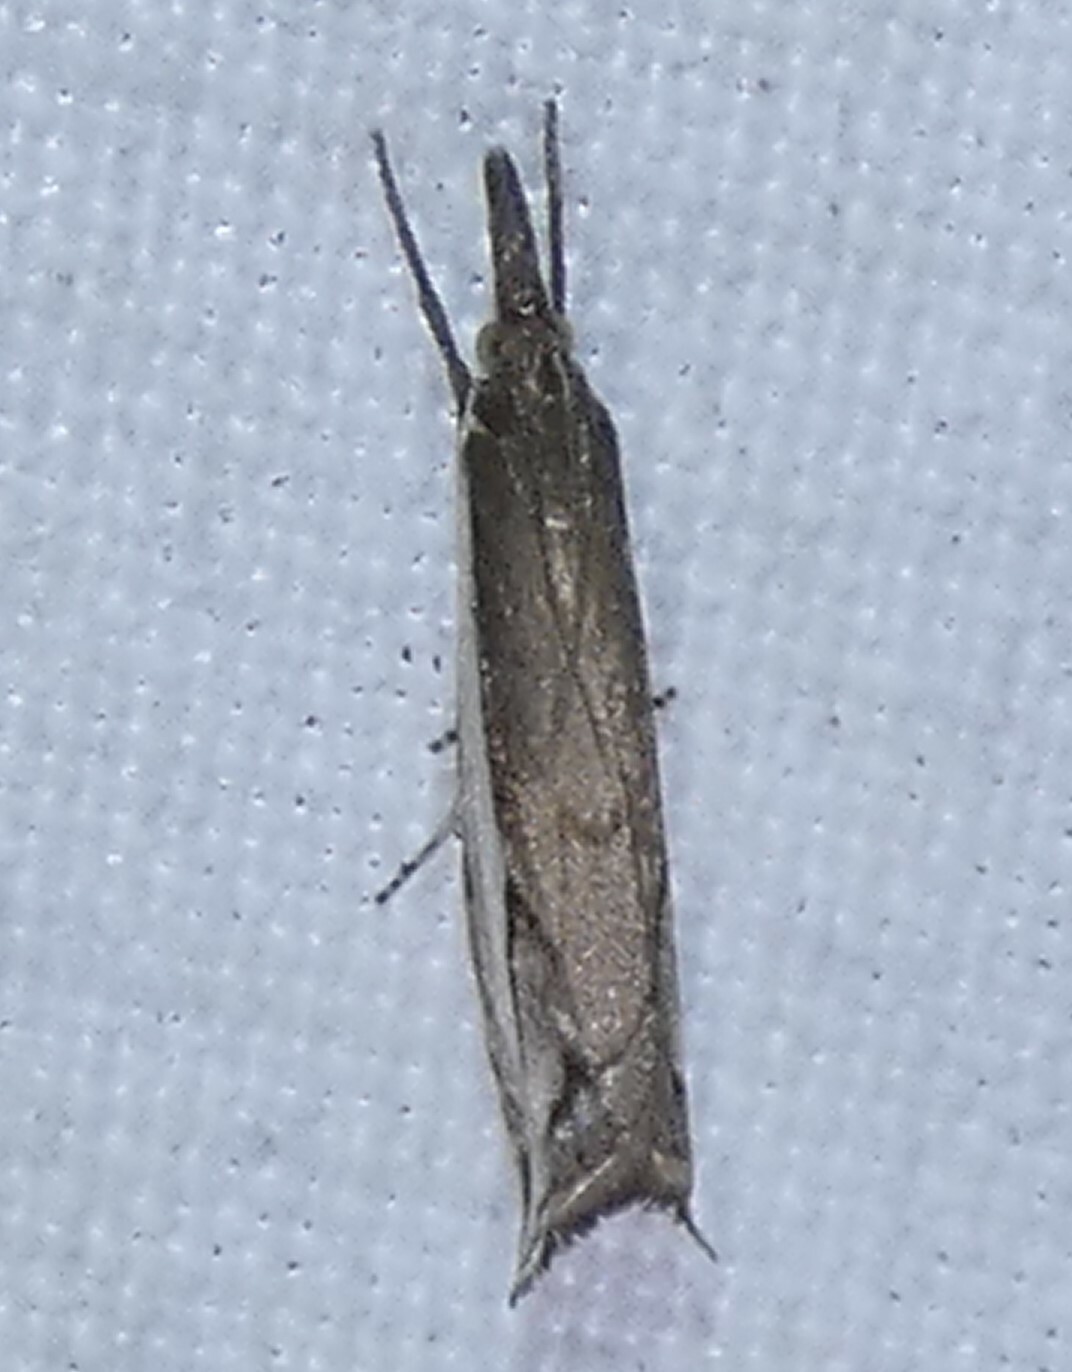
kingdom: Animalia
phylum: Arthropoda
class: Insecta
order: Lepidoptera
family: Crambidae
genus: Raphiptera
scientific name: Raphiptera argillaceellus
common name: Diminutive grass-veneer
